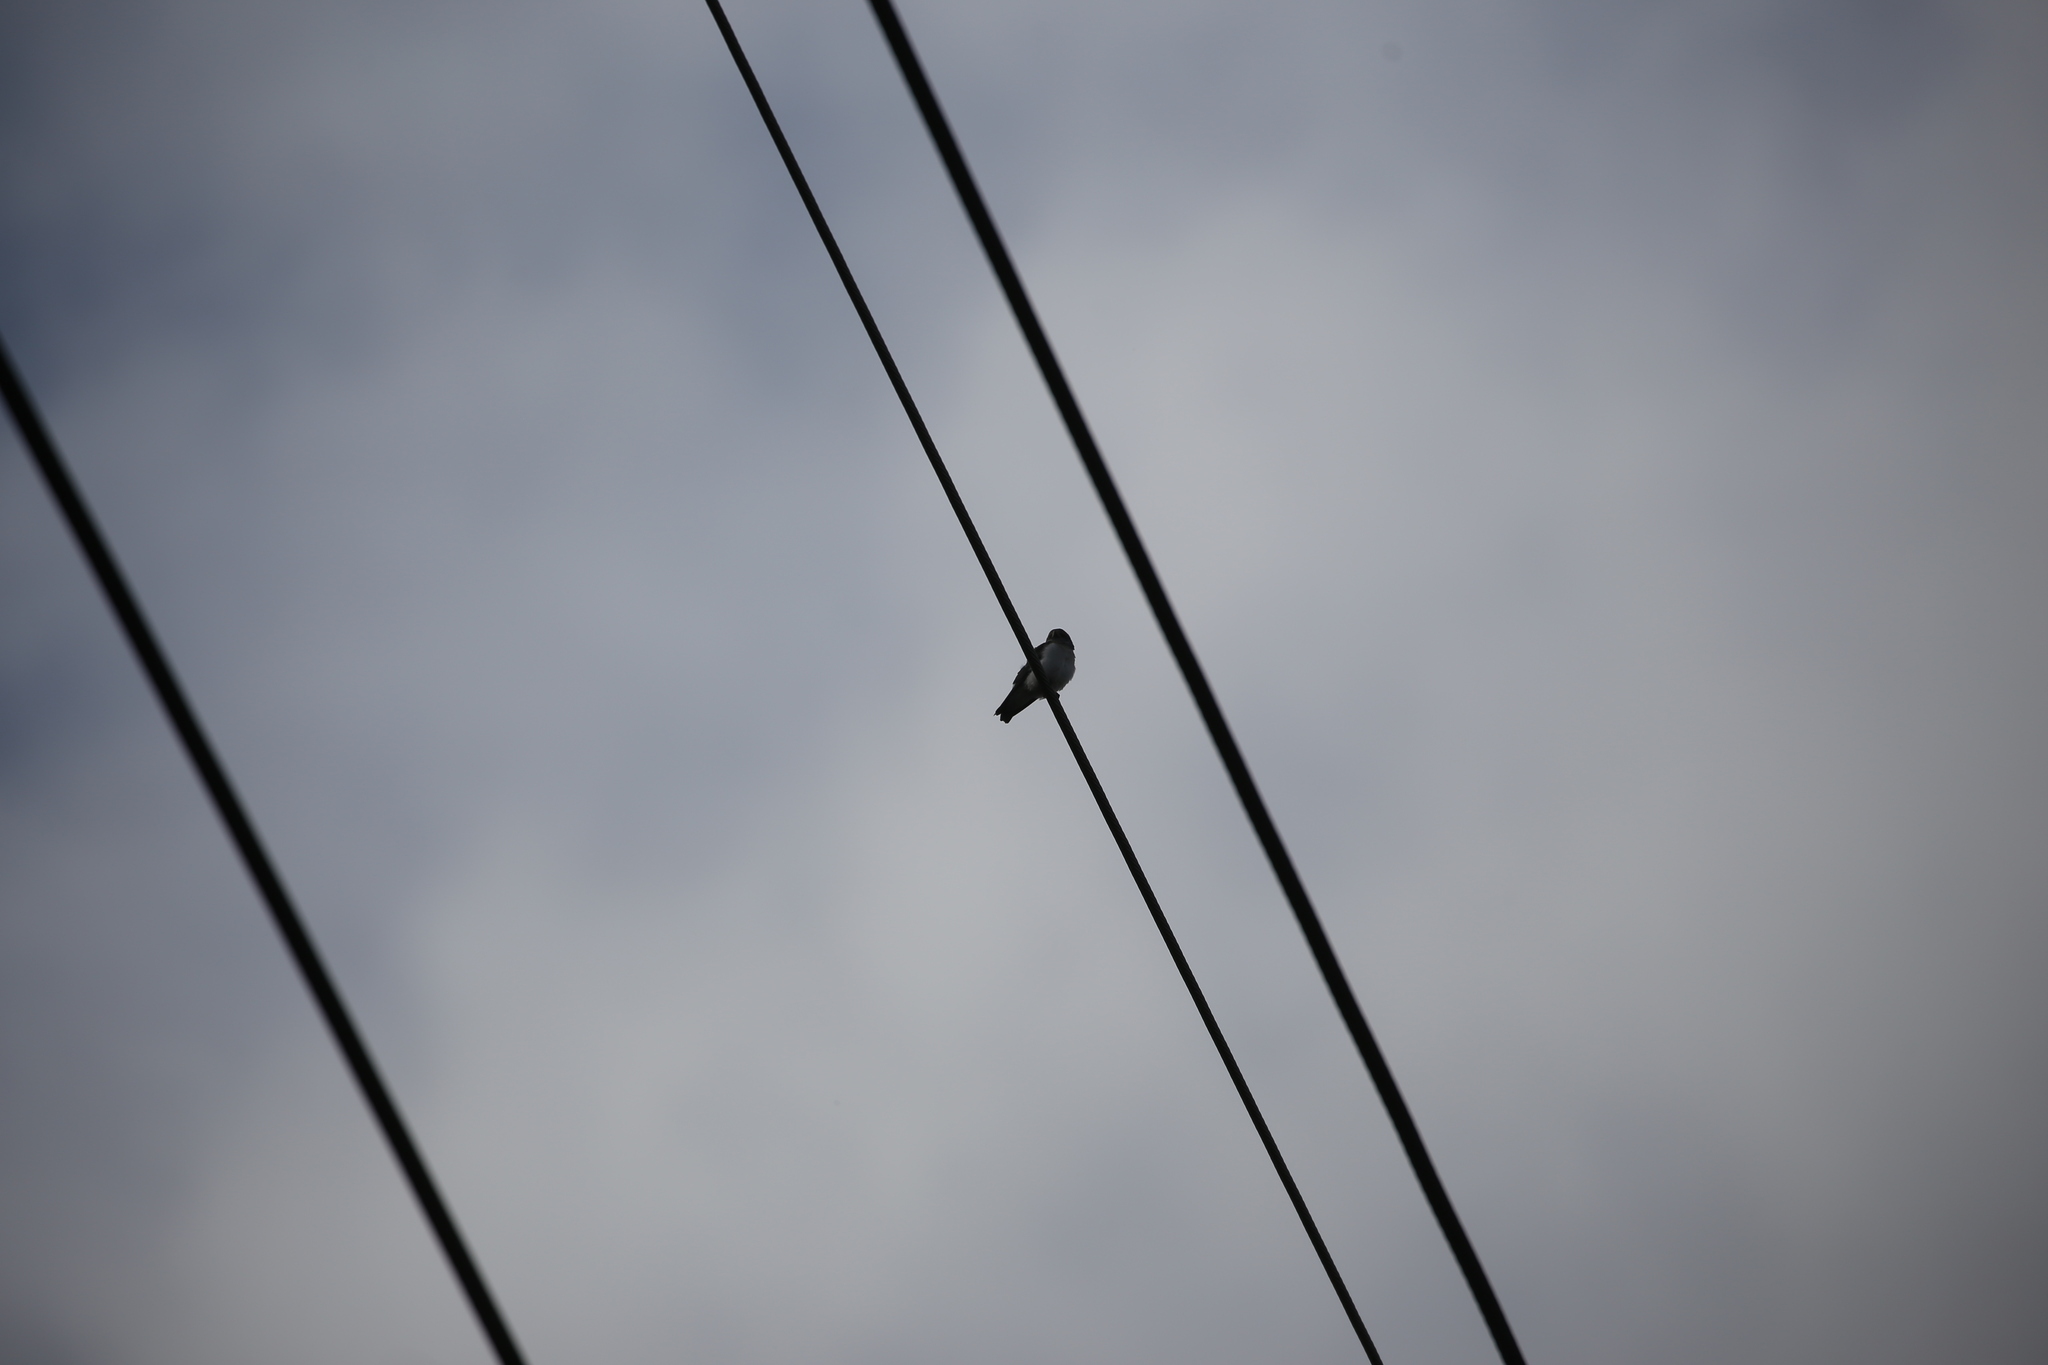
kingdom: Animalia
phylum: Chordata
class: Aves
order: Passeriformes
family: Artamidae
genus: Artamus
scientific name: Artamus leucoryn
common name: White-breasted woodswallow
